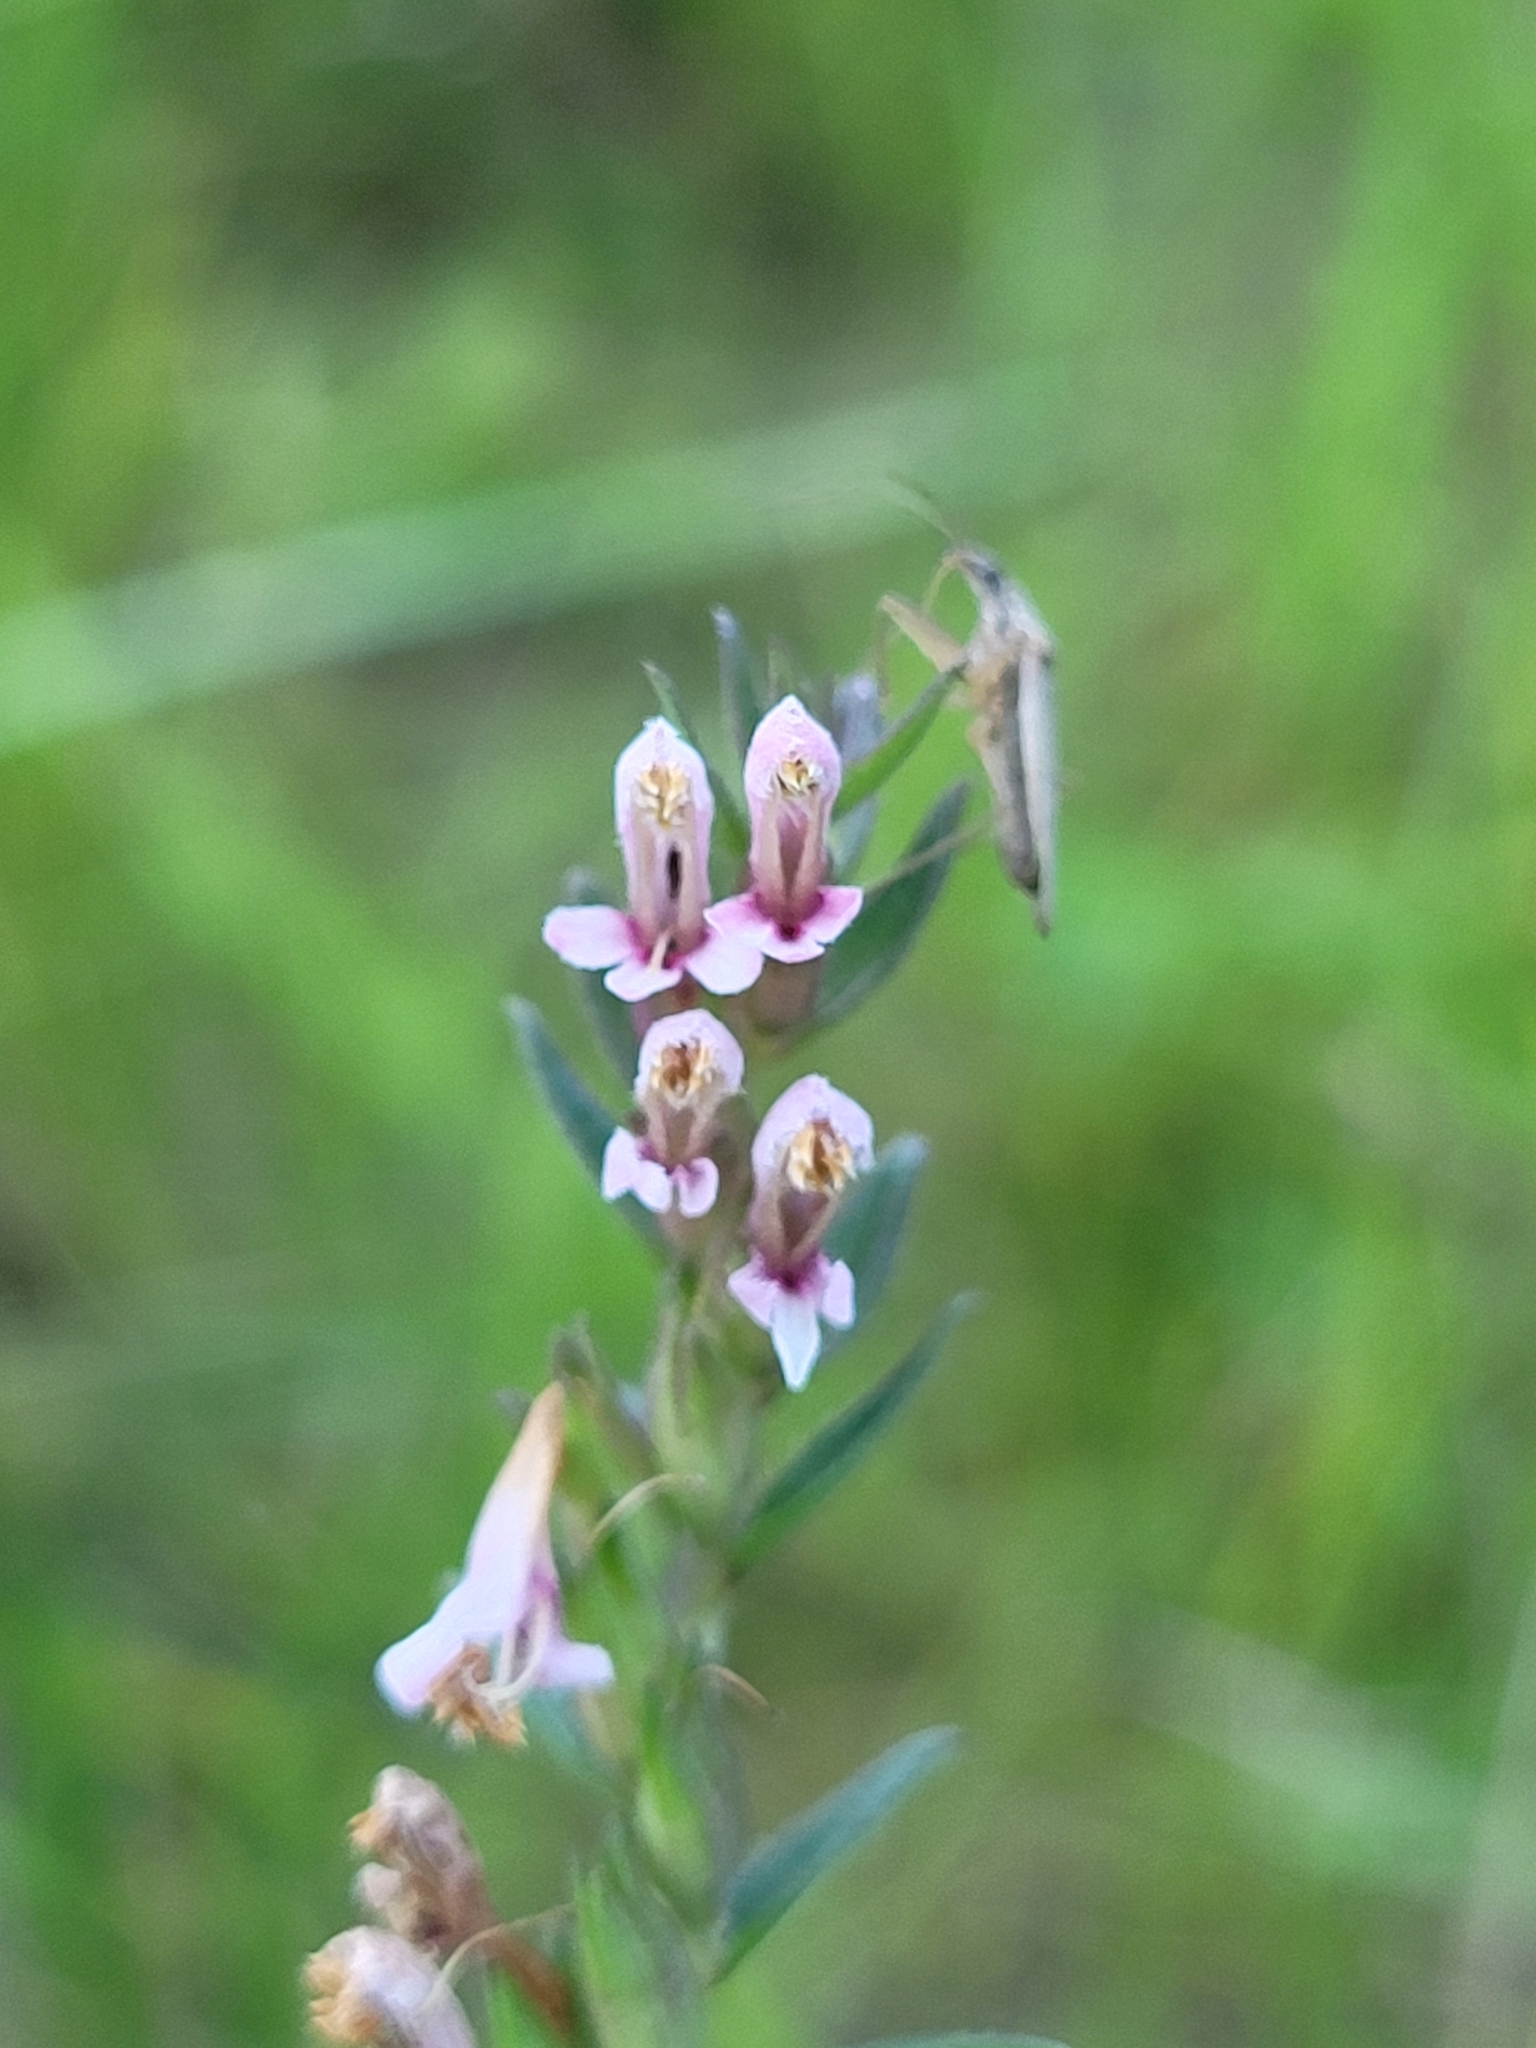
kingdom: Plantae
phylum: Tracheophyta
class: Magnoliopsida
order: Lamiales
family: Orobanchaceae
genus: Odontites
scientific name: Odontites vulgaris
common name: Broomrape
